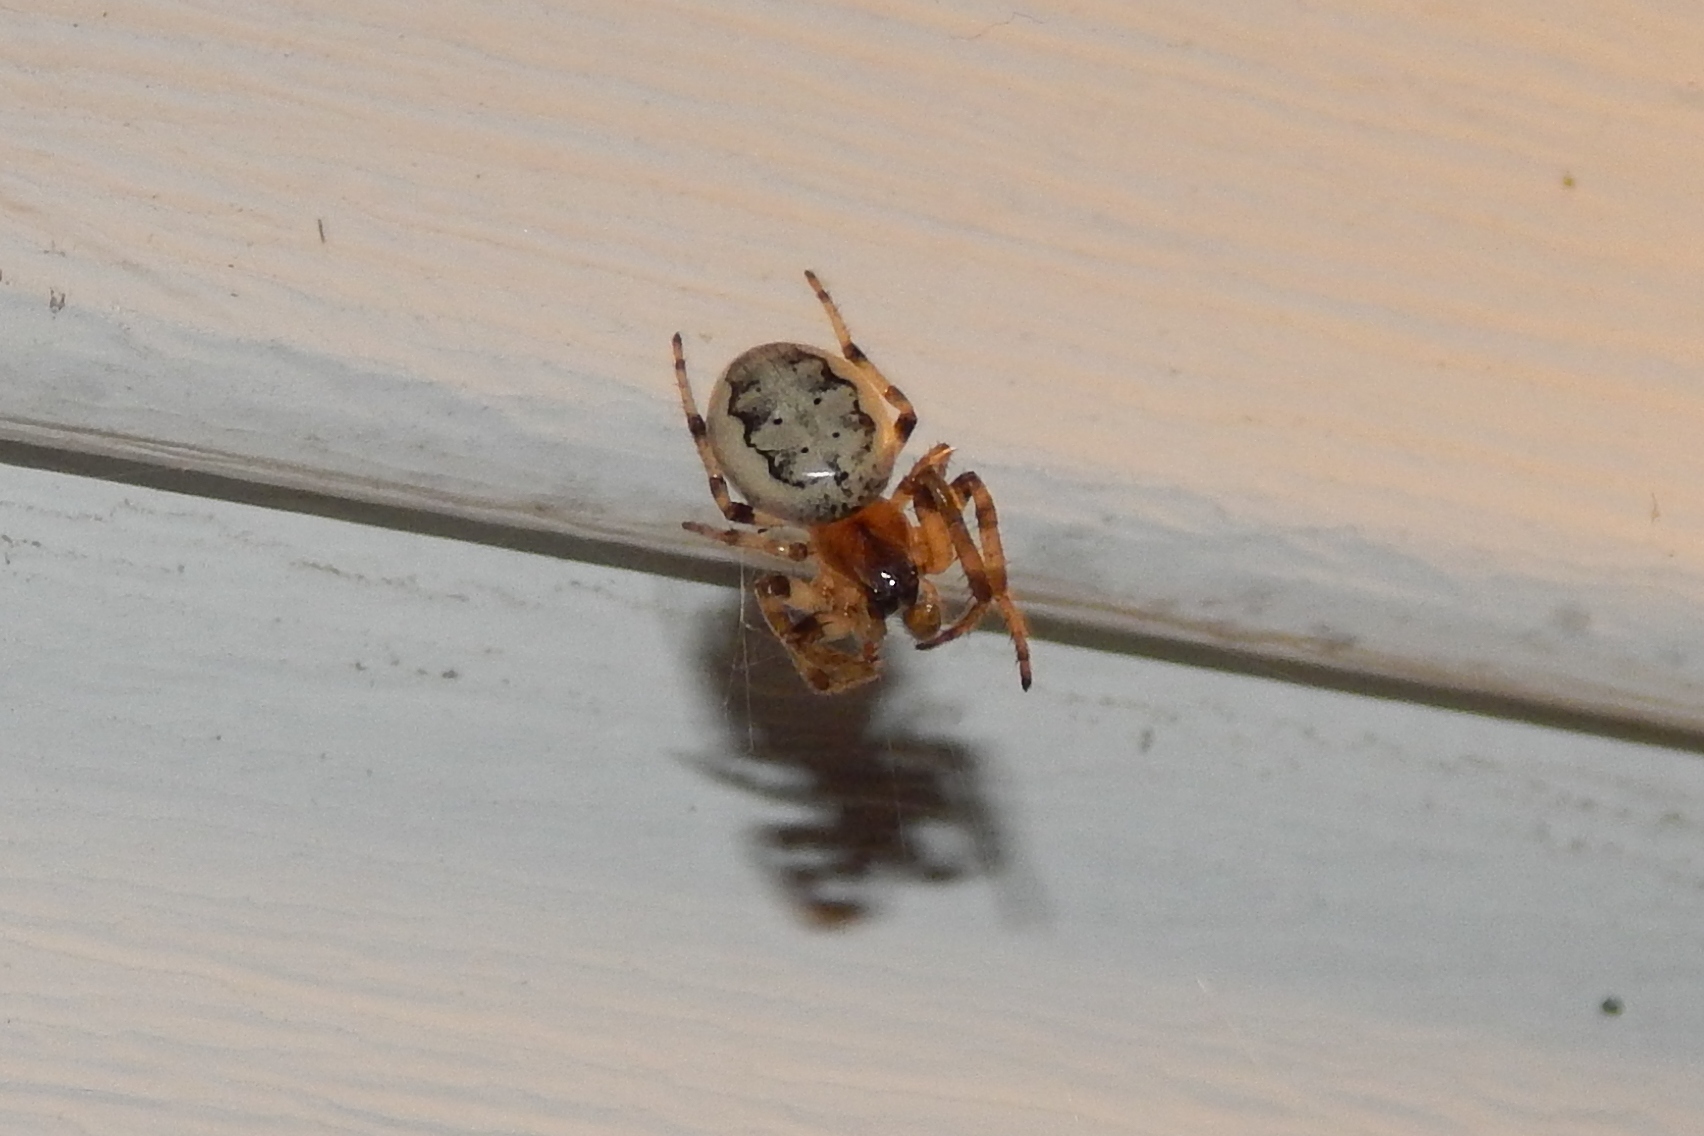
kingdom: Animalia
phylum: Arthropoda
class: Arachnida
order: Araneae
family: Araneidae
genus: Larinioides
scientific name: Larinioides cornutus
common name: Furrow orbweaver
